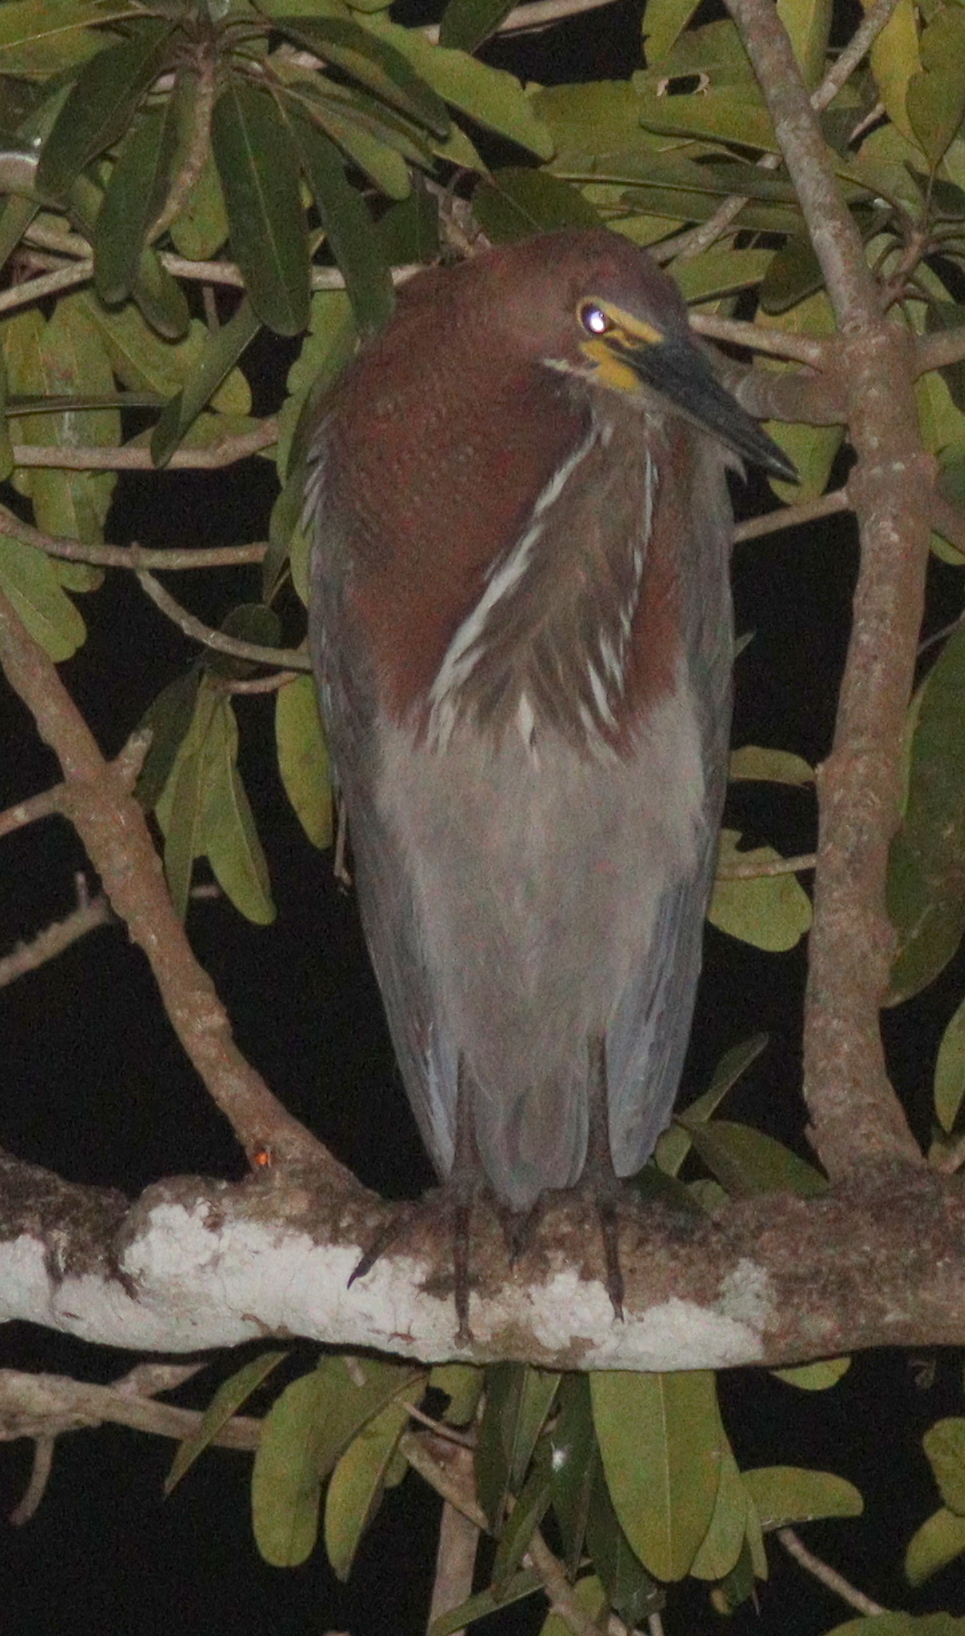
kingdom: Animalia
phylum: Chordata
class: Aves
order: Pelecaniformes
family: Ardeidae
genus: Tigrisoma
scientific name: Tigrisoma lineatum
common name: Rufescent tiger-heron
